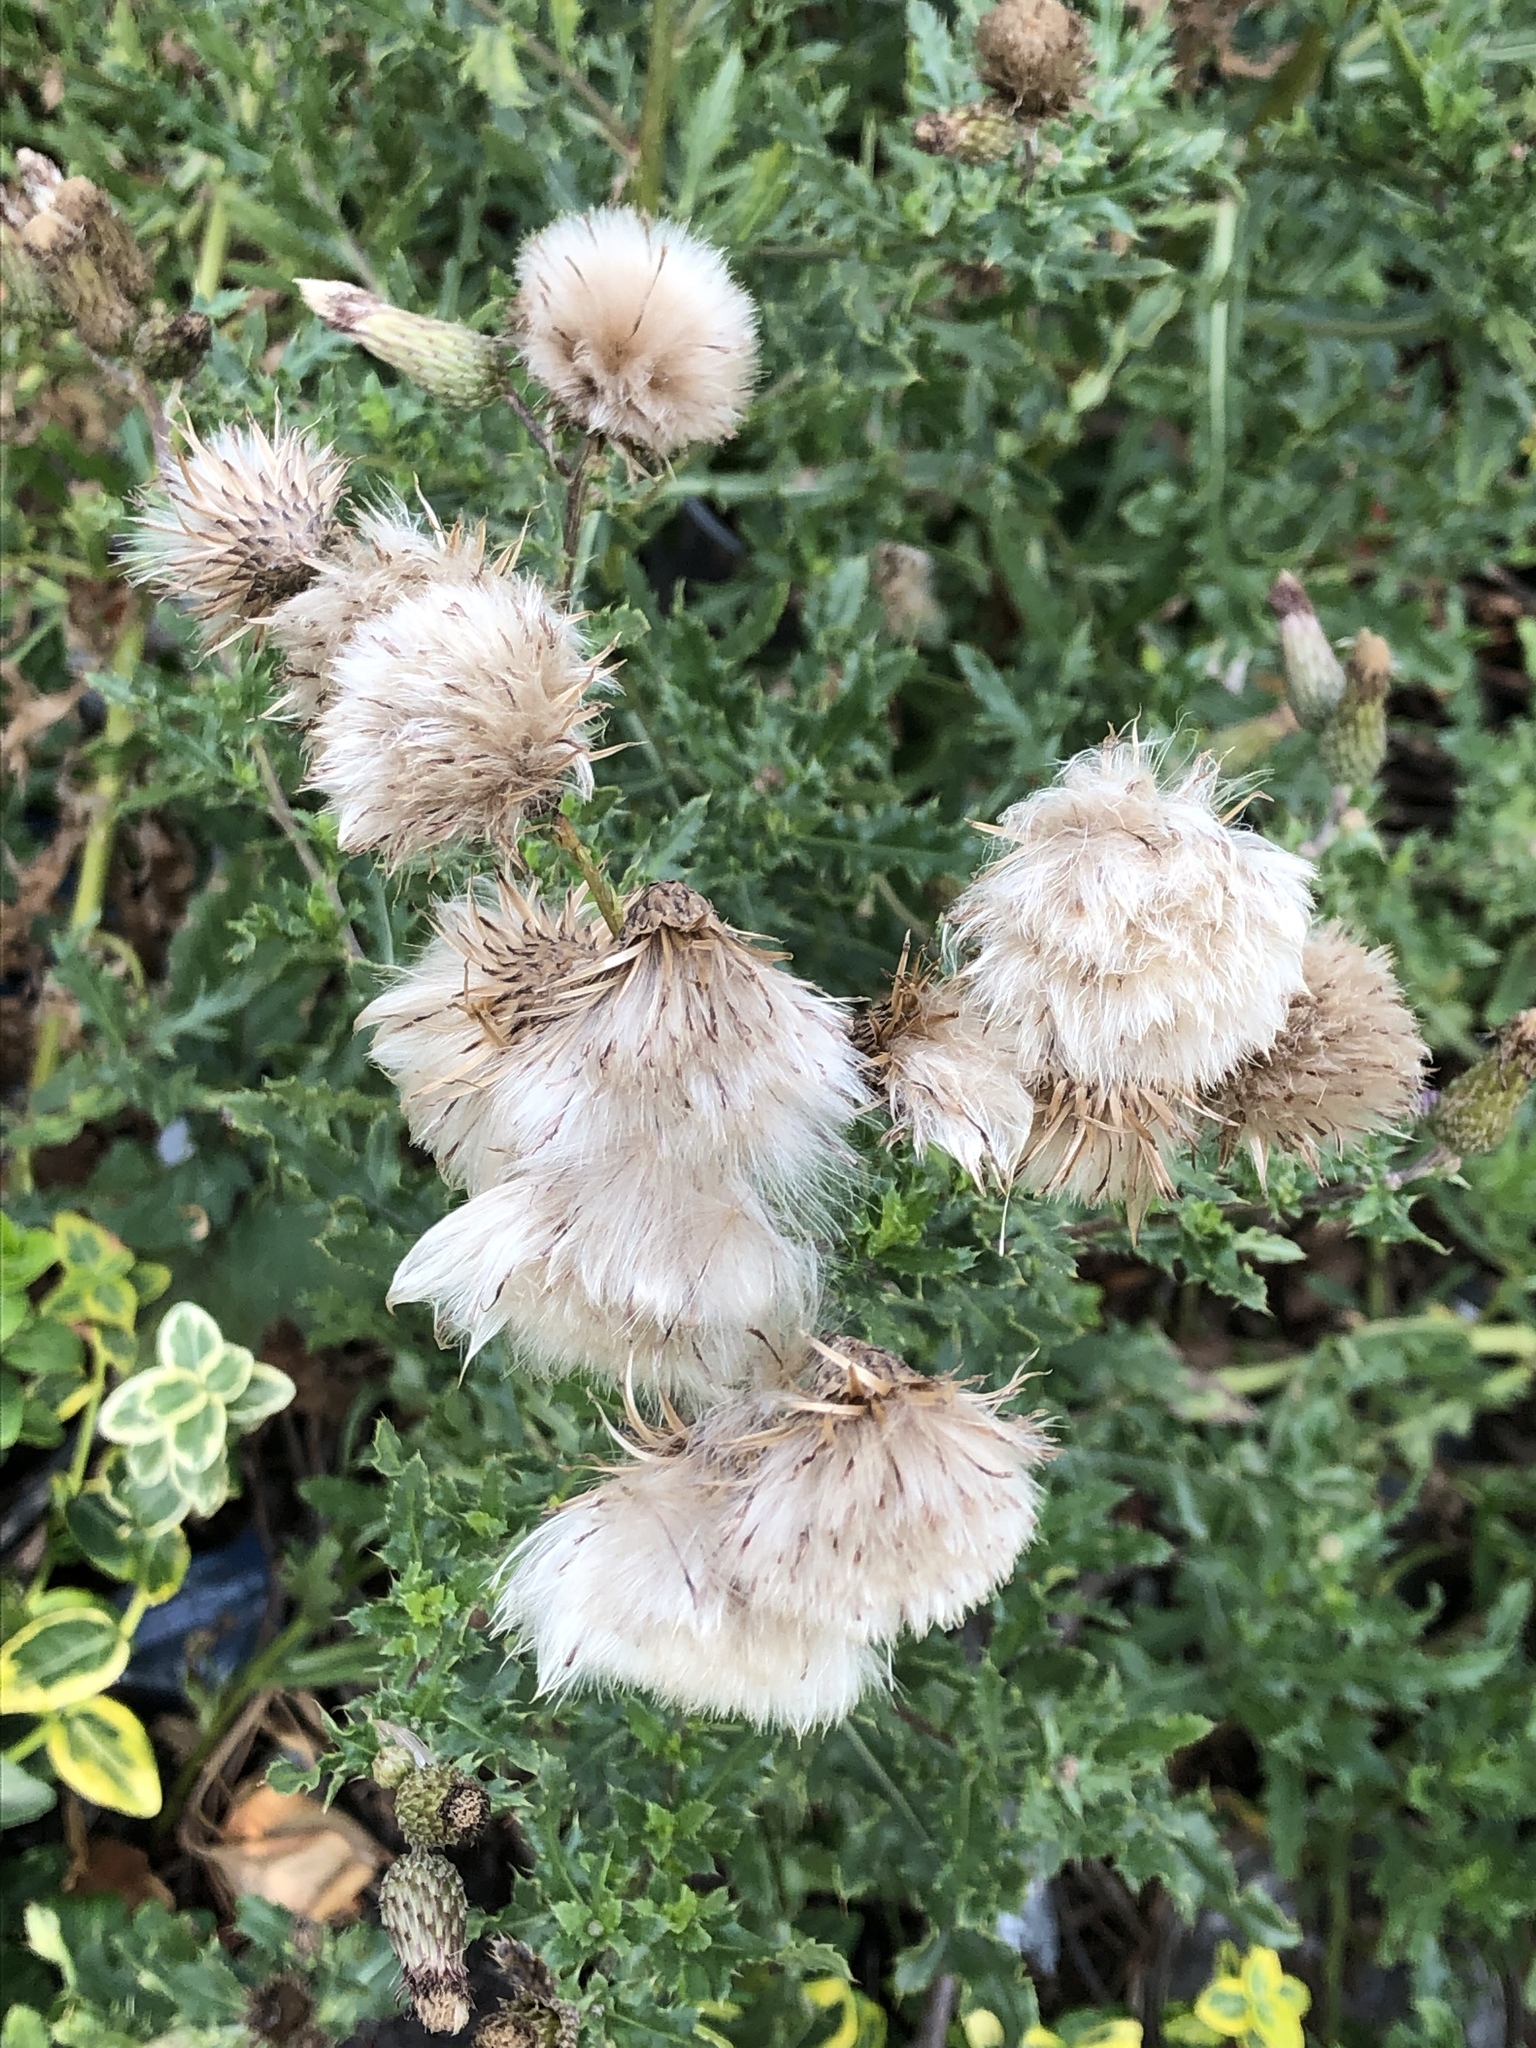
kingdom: Plantae
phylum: Tracheophyta
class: Magnoliopsida
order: Asterales
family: Asteraceae
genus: Cirsium
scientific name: Cirsium arvense
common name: Creeping thistle
